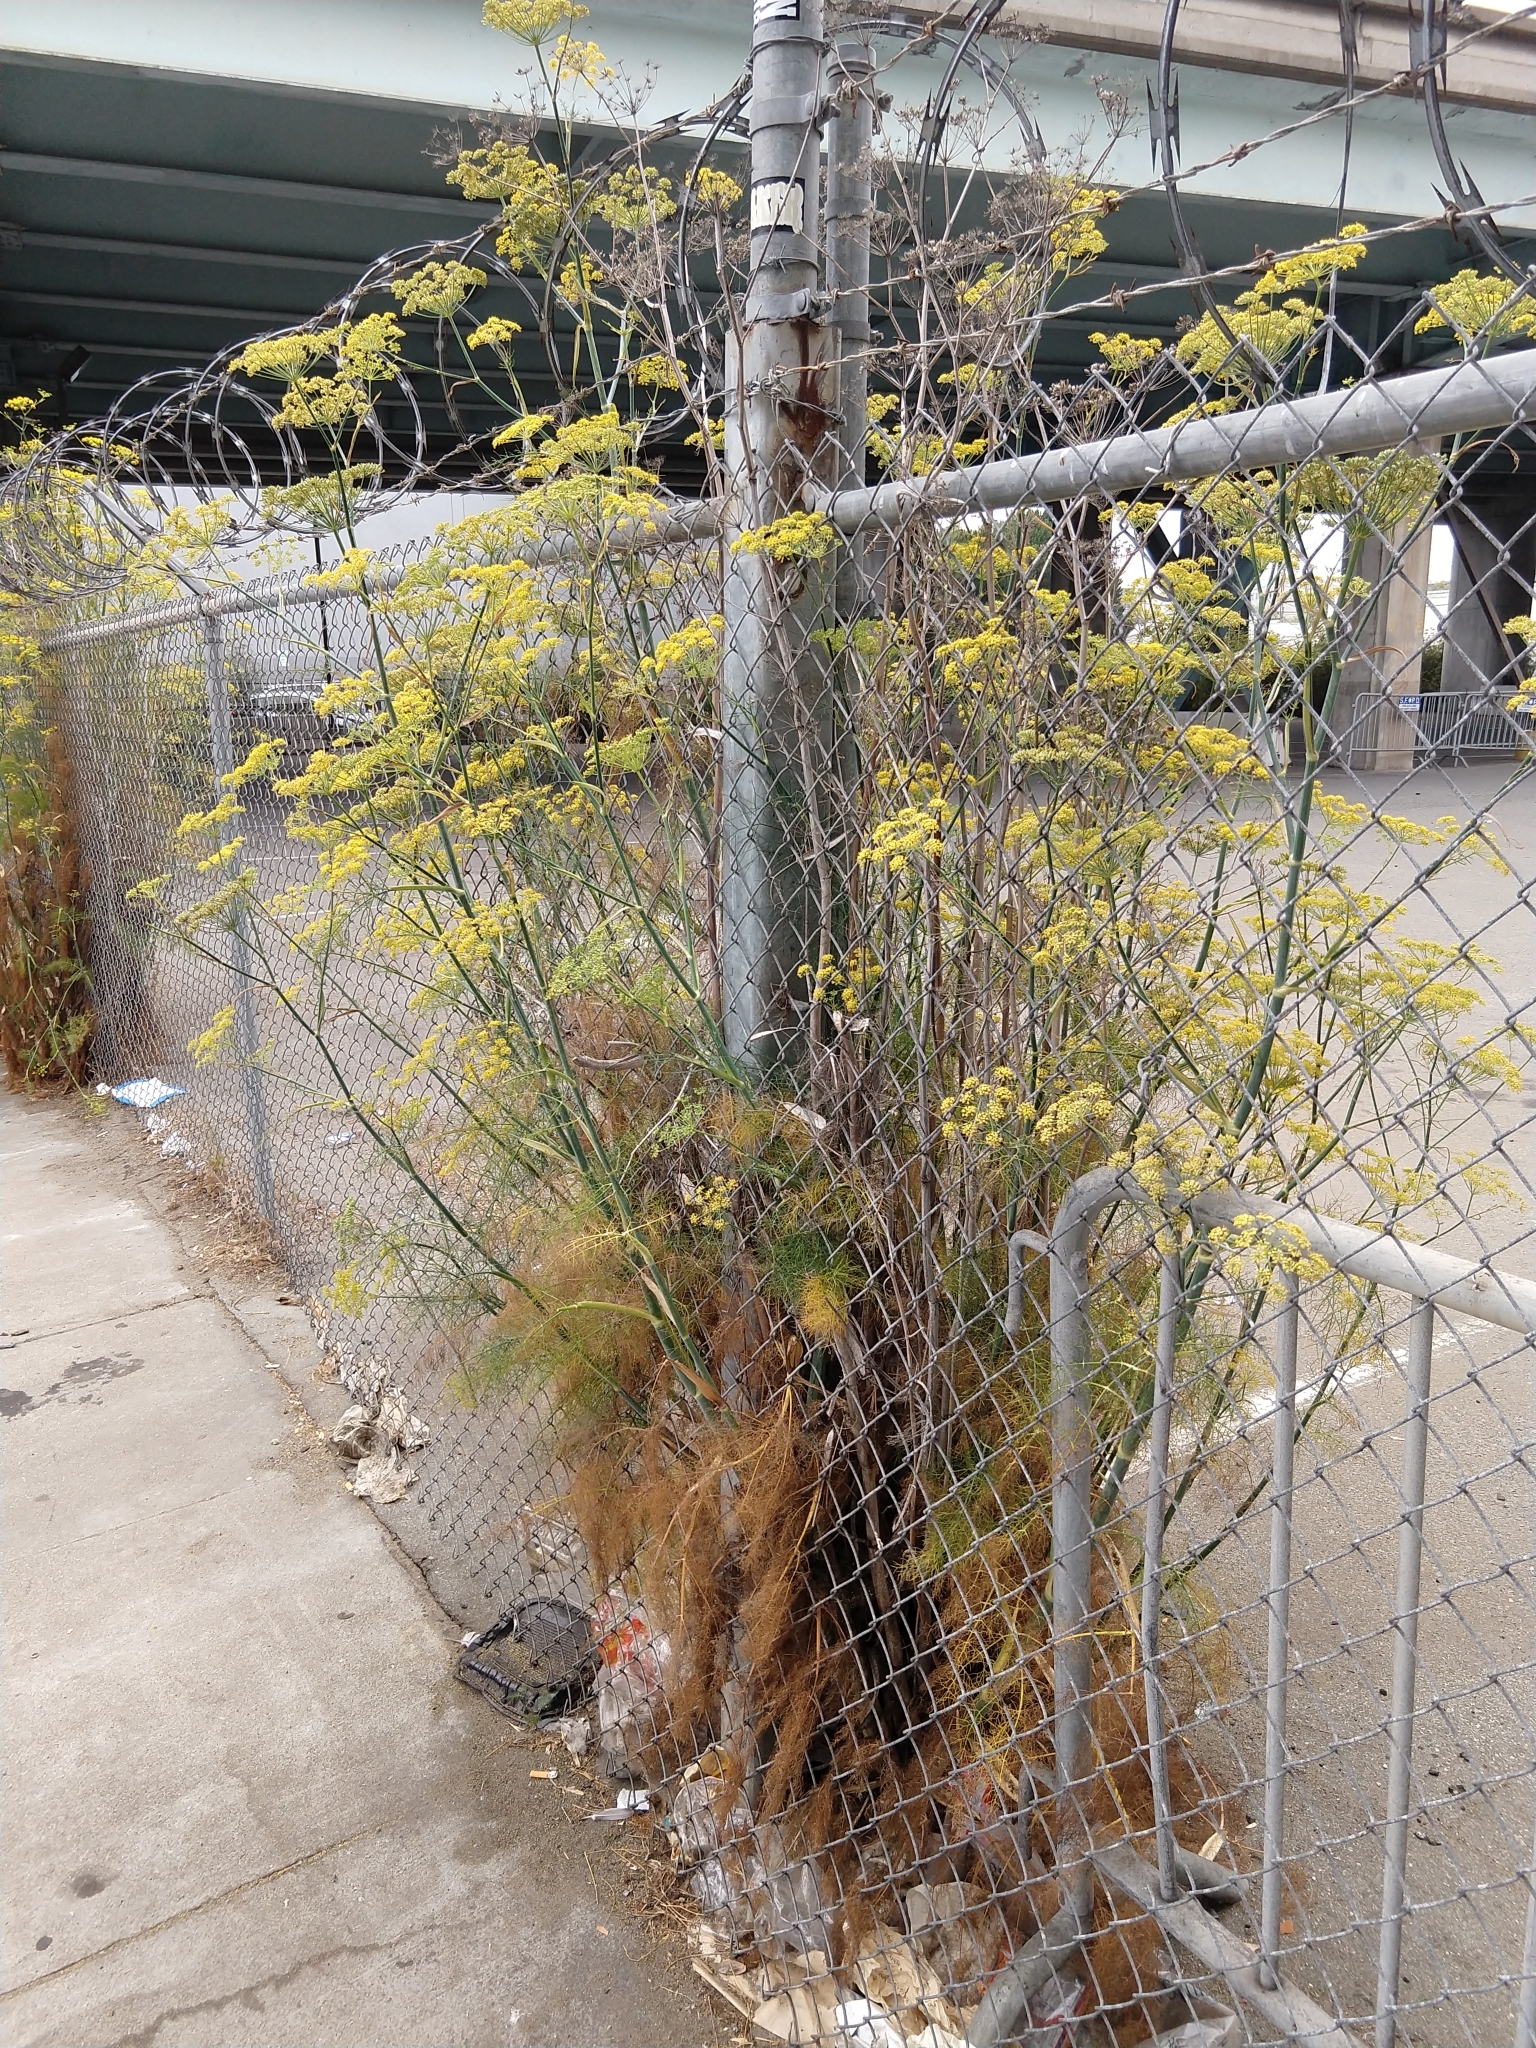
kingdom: Plantae
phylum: Tracheophyta
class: Magnoliopsida
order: Apiales
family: Apiaceae
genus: Foeniculum
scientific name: Foeniculum vulgare
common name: Fennel
